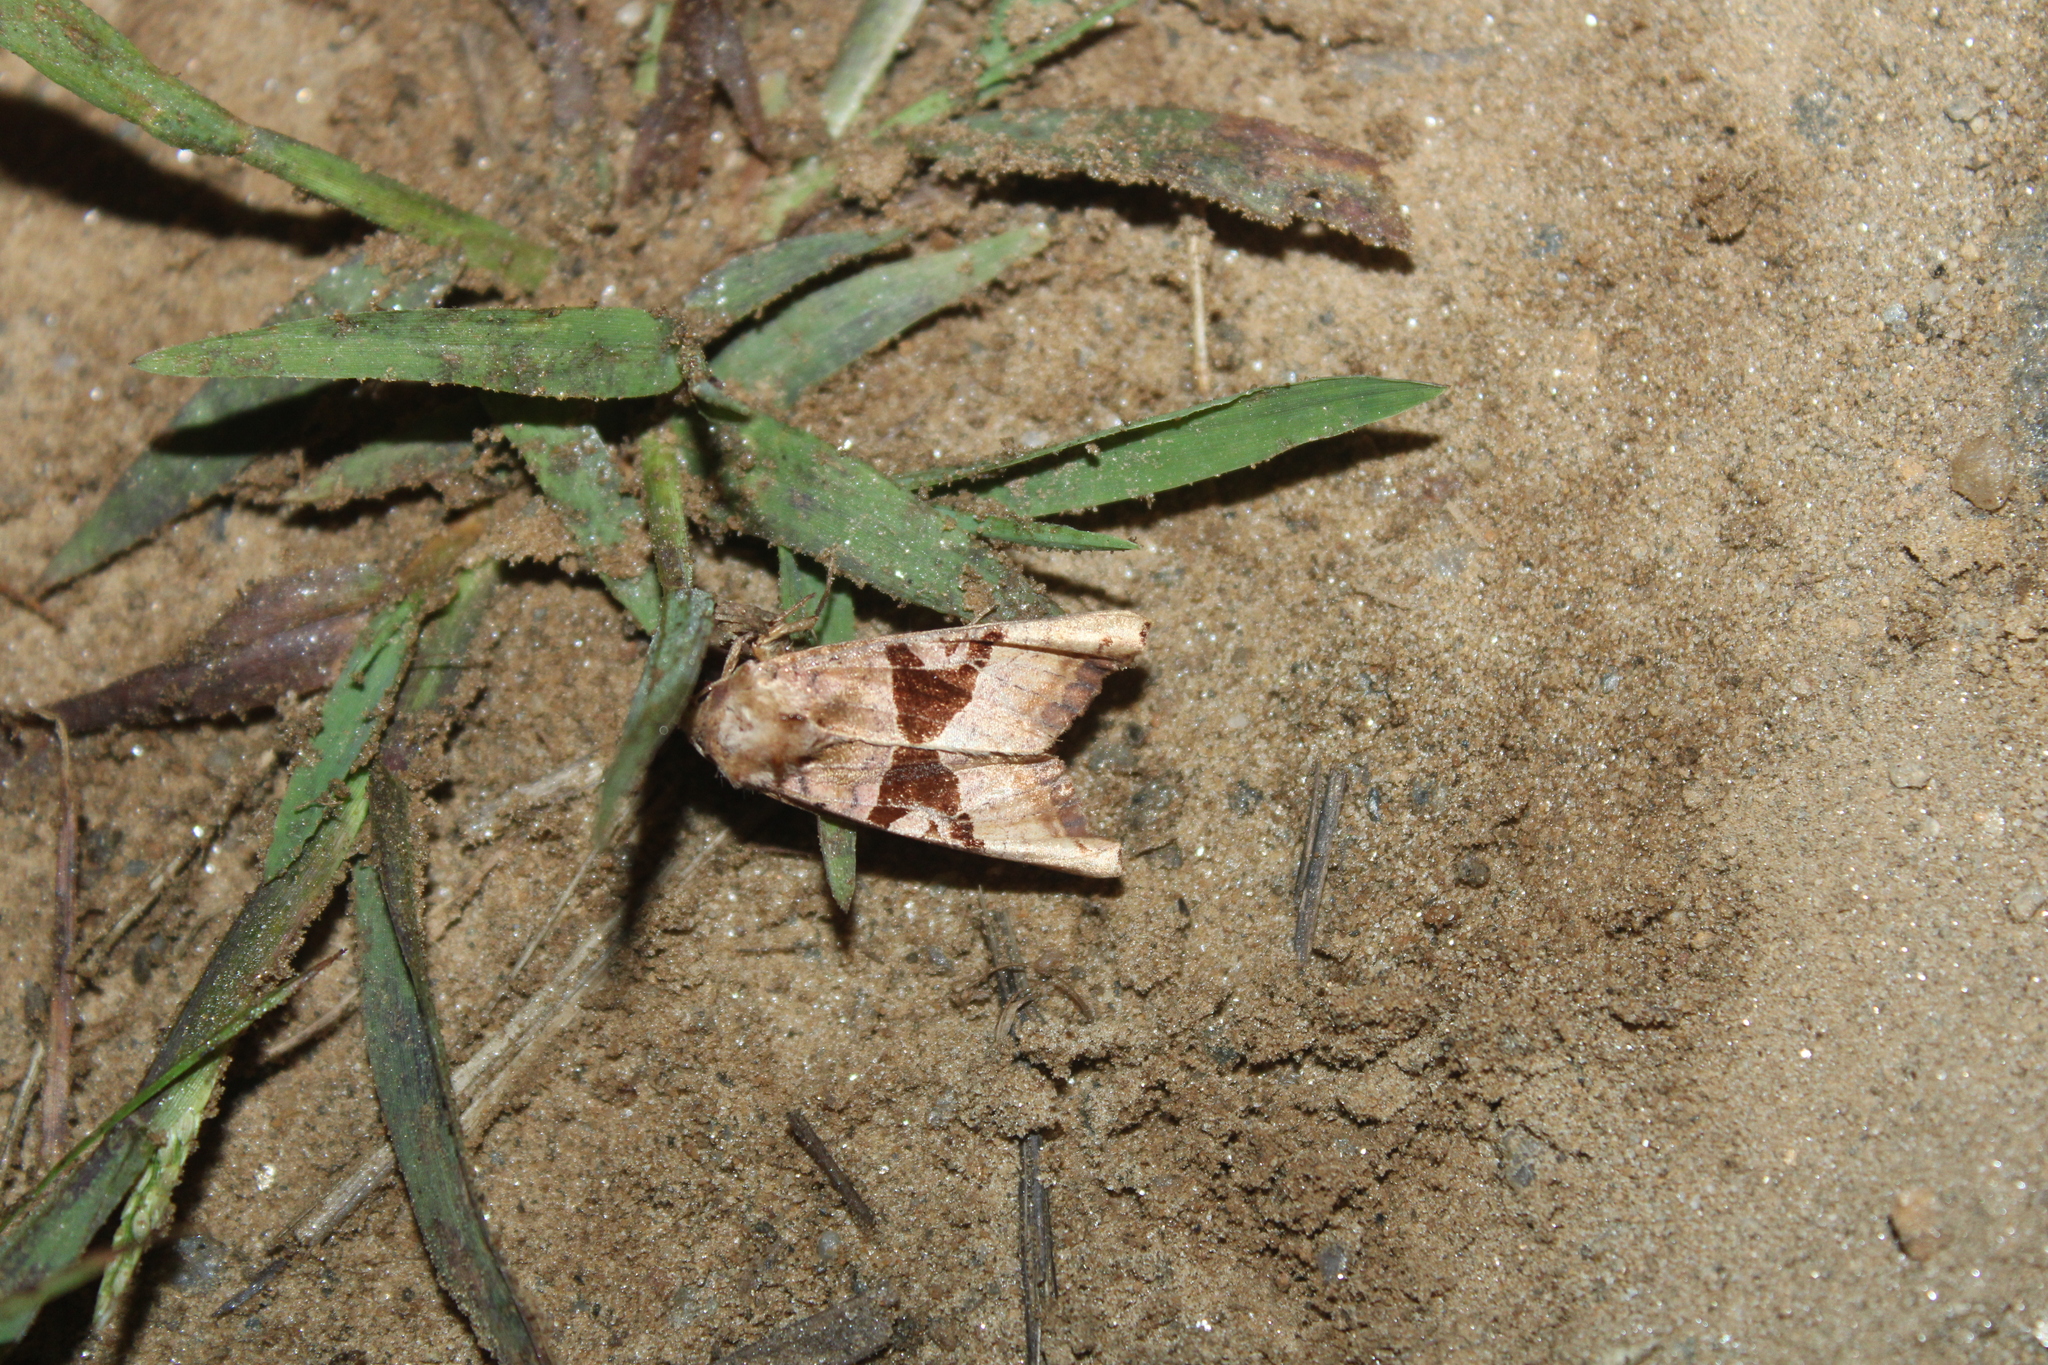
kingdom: Animalia
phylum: Arthropoda
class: Insecta
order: Lepidoptera
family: Noctuidae
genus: Phlogophora
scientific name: Phlogophora periculosa
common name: Brown angle shades
